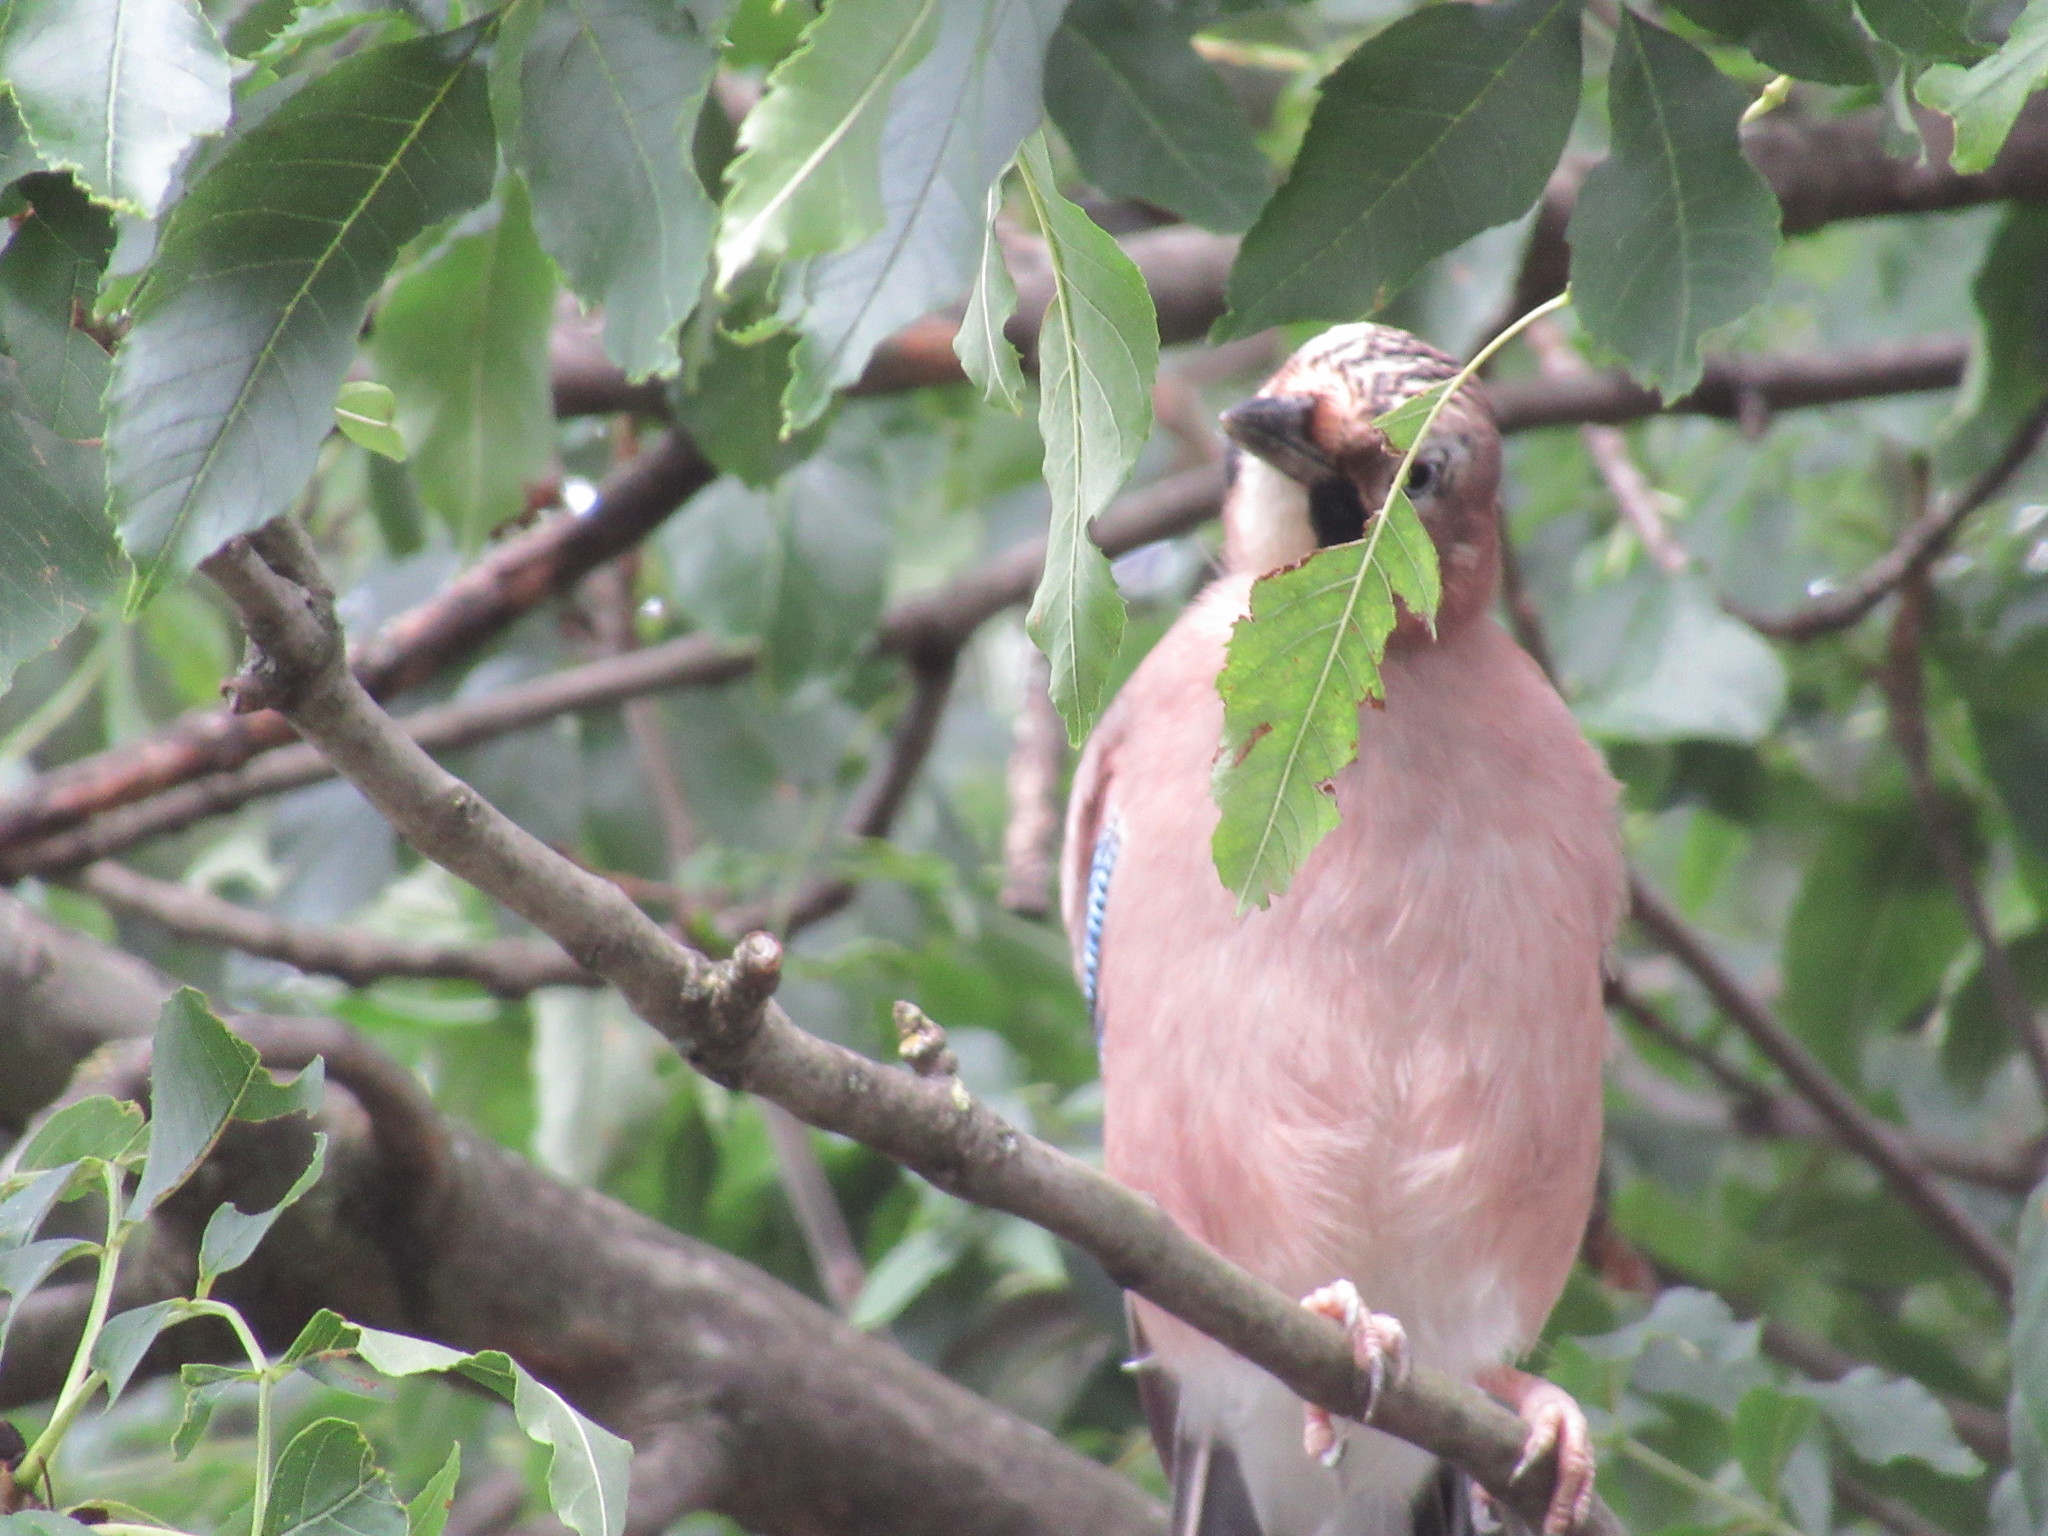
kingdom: Animalia
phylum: Chordata
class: Aves
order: Passeriformes
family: Corvidae
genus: Garrulus
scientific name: Garrulus glandarius
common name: Eurasian jay
